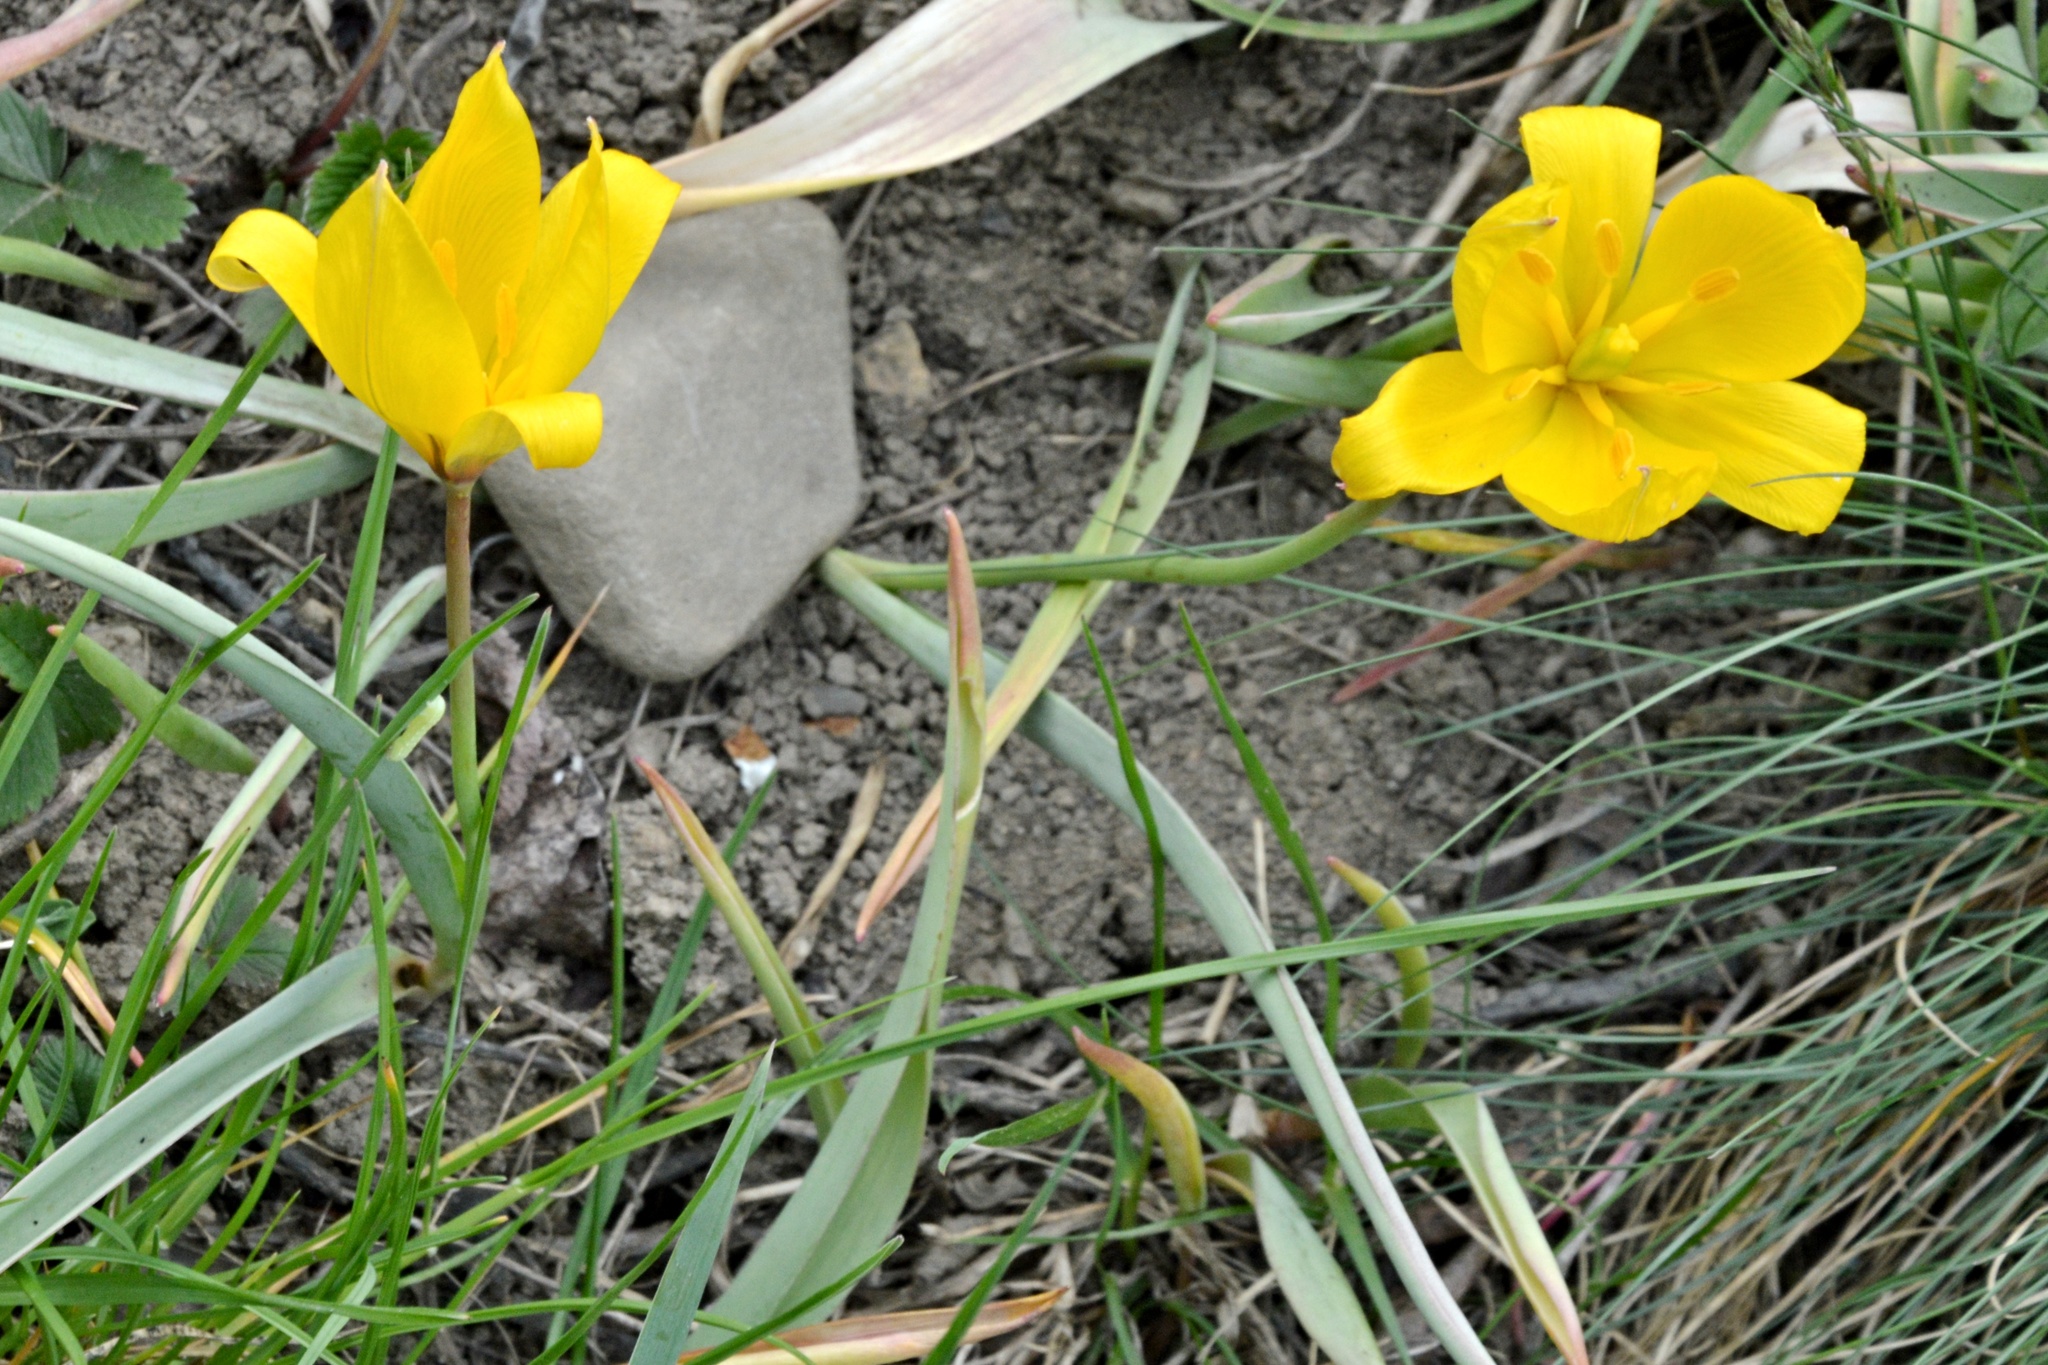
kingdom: Plantae
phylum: Tracheophyta
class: Liliopsida
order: Liliales
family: Liliaceae
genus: Tulipa
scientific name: Tulipa sylvestris
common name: Wild tulip
